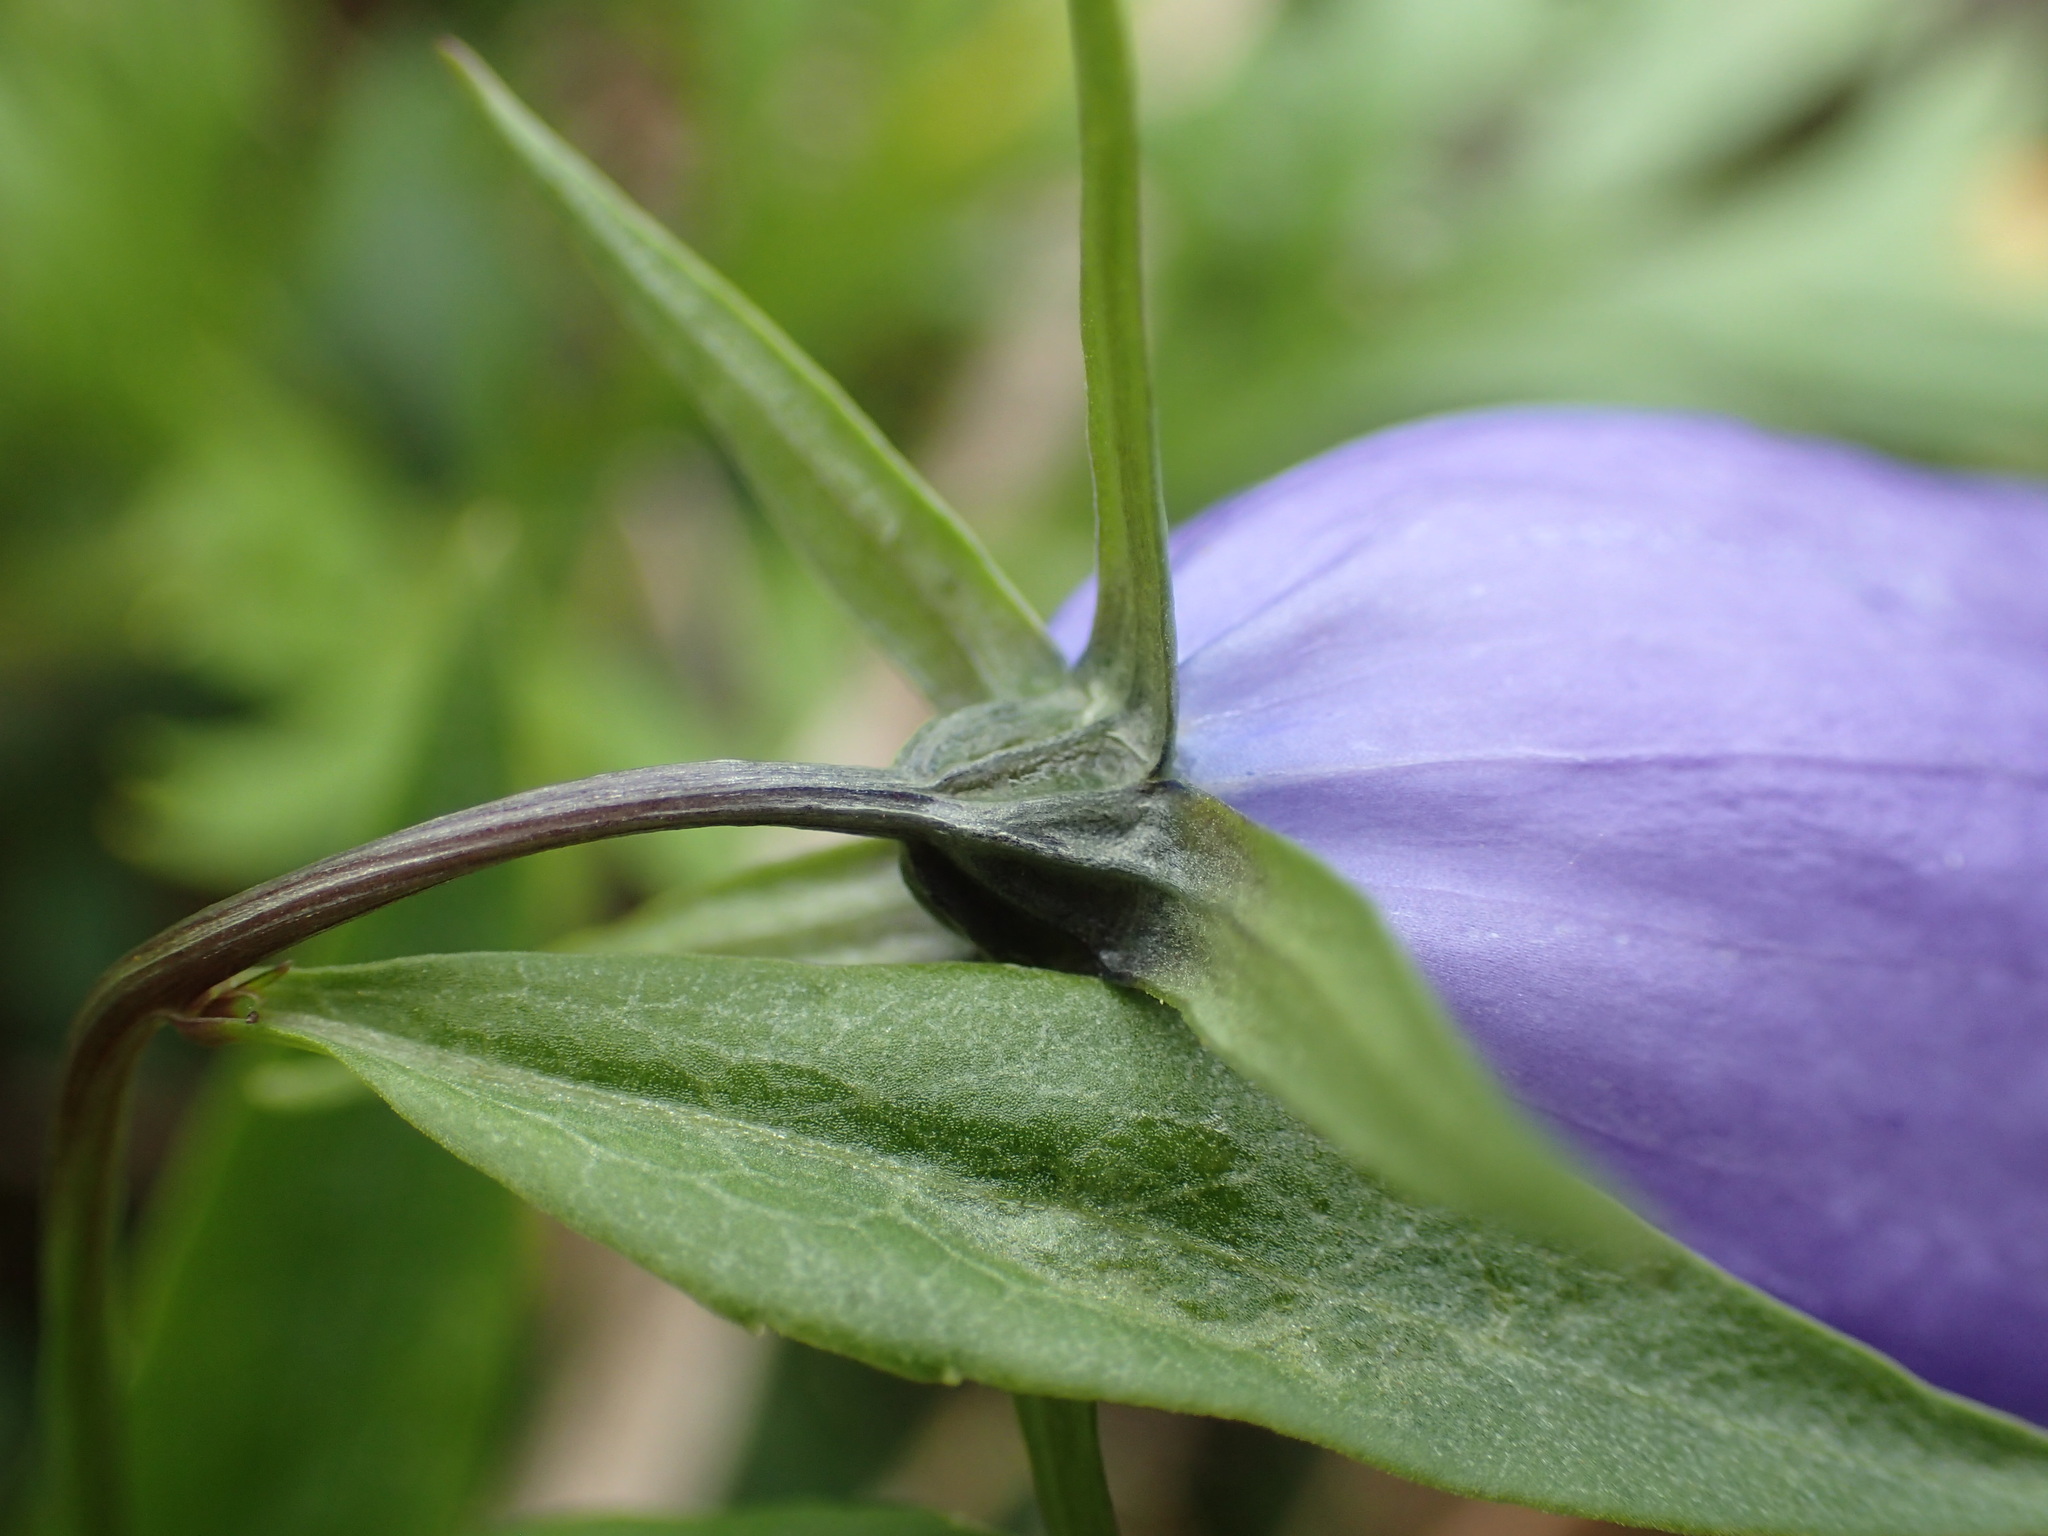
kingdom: Plantae
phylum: Tracheophyta
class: Magnoliopsida
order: Asterales
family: Campanulaceae
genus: Campanula
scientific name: Campanula alaskana
